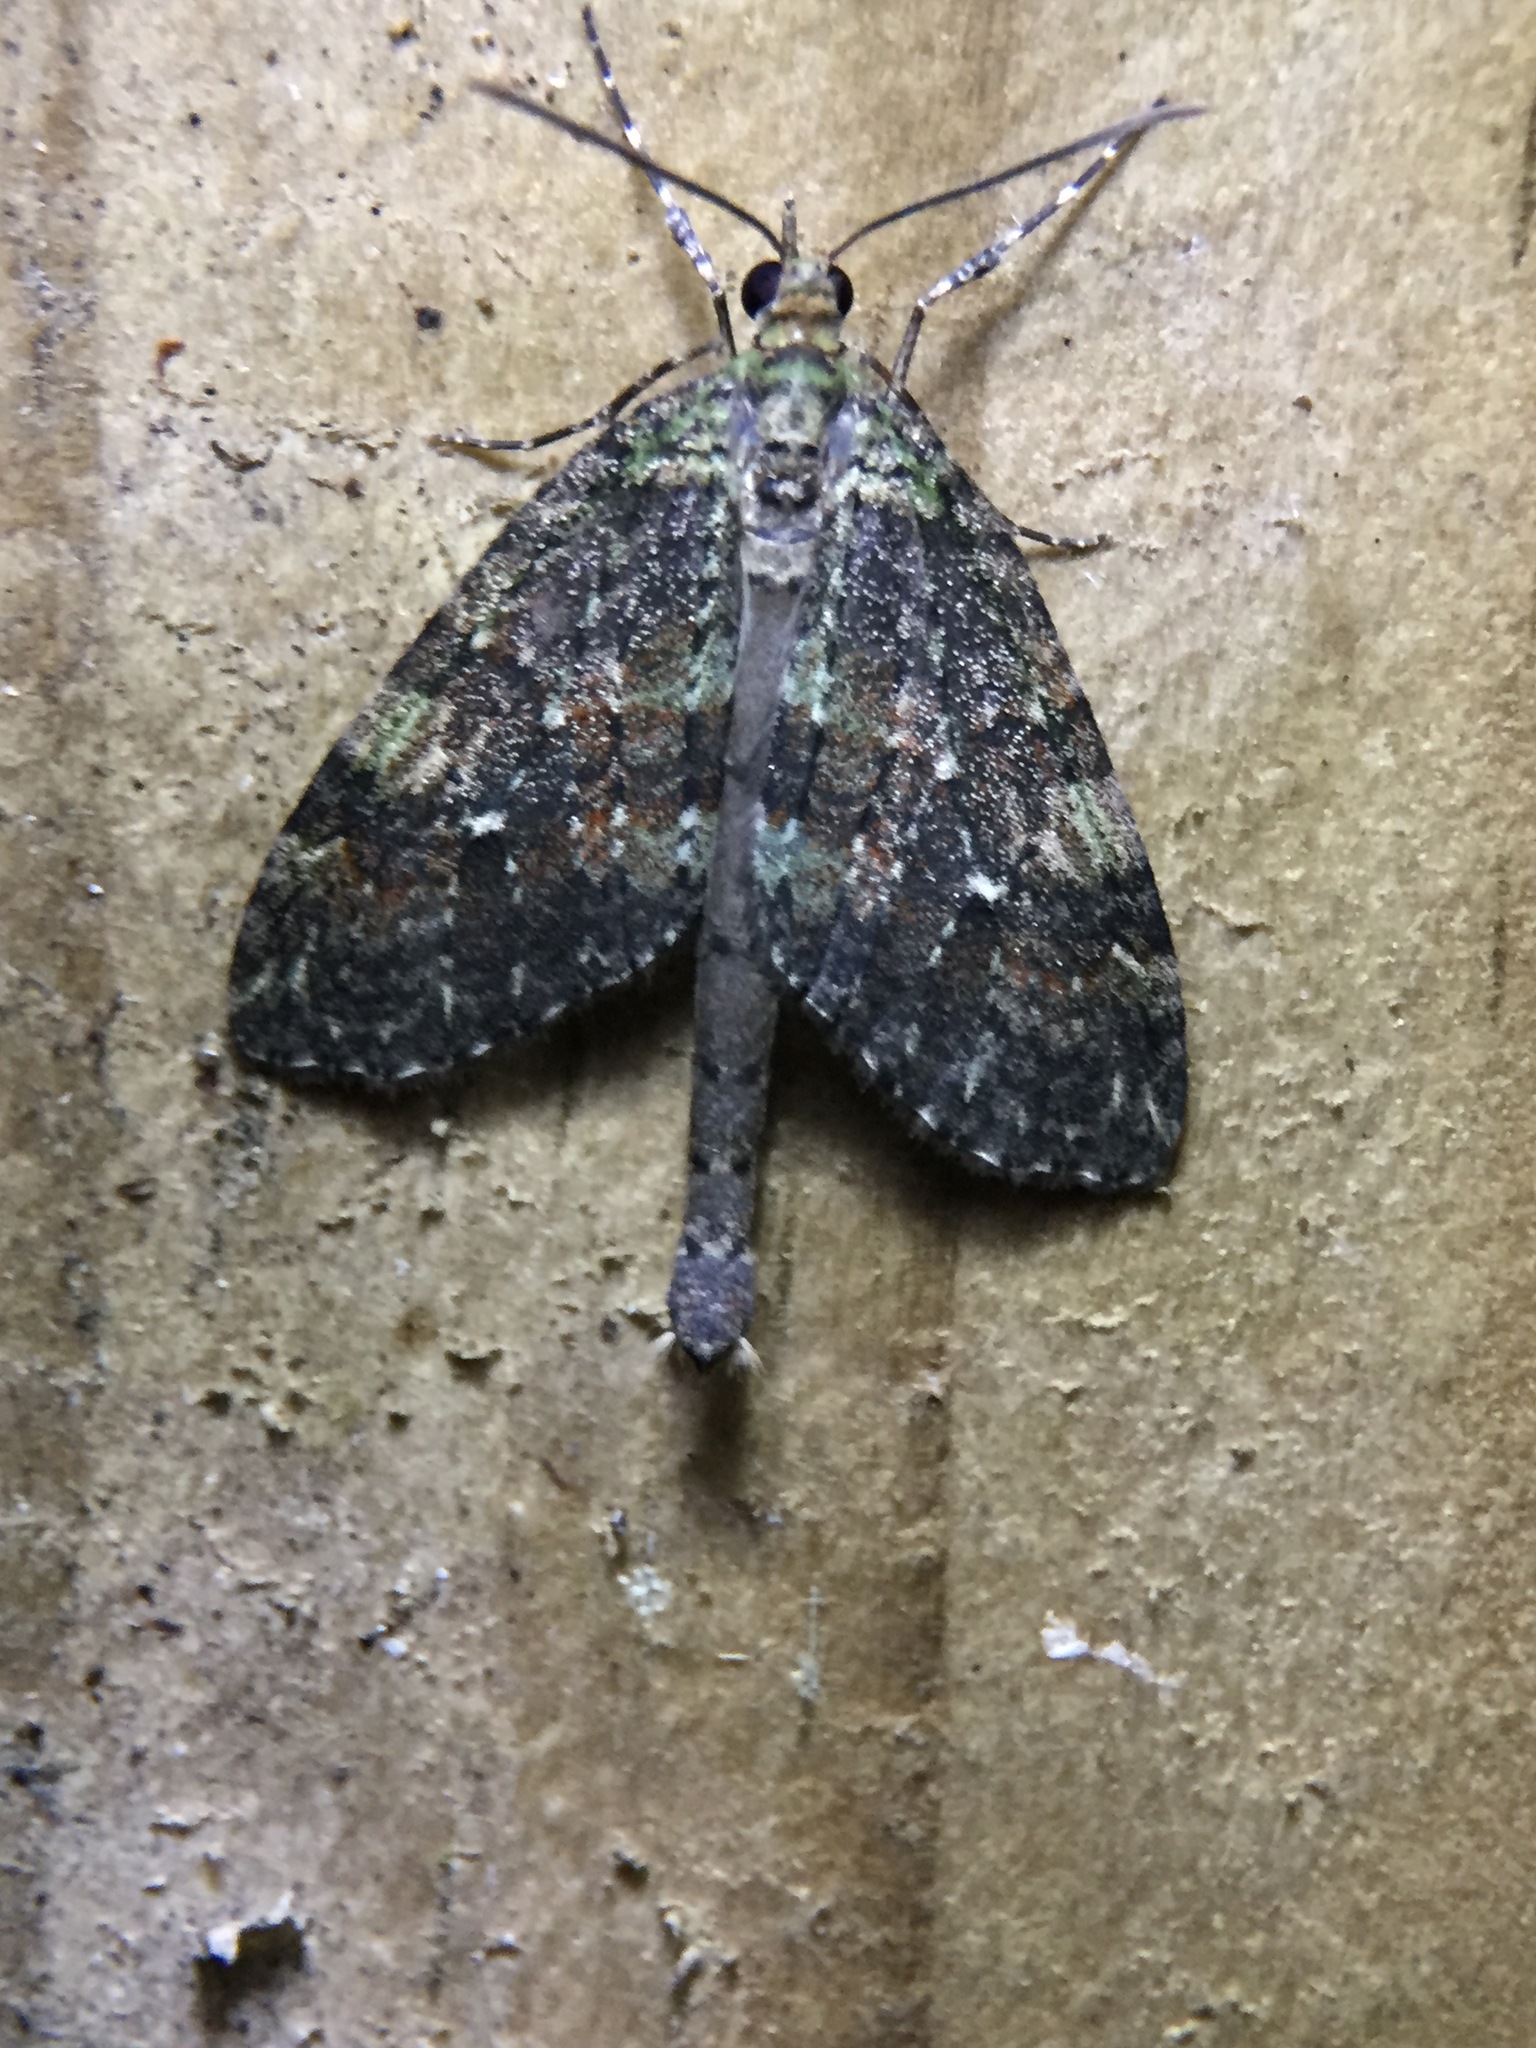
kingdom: Animalia
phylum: Arthropoda
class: Insecta
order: Lepidoptera
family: Geometridae
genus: Tatosoma
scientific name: Tatosoma transitaria
